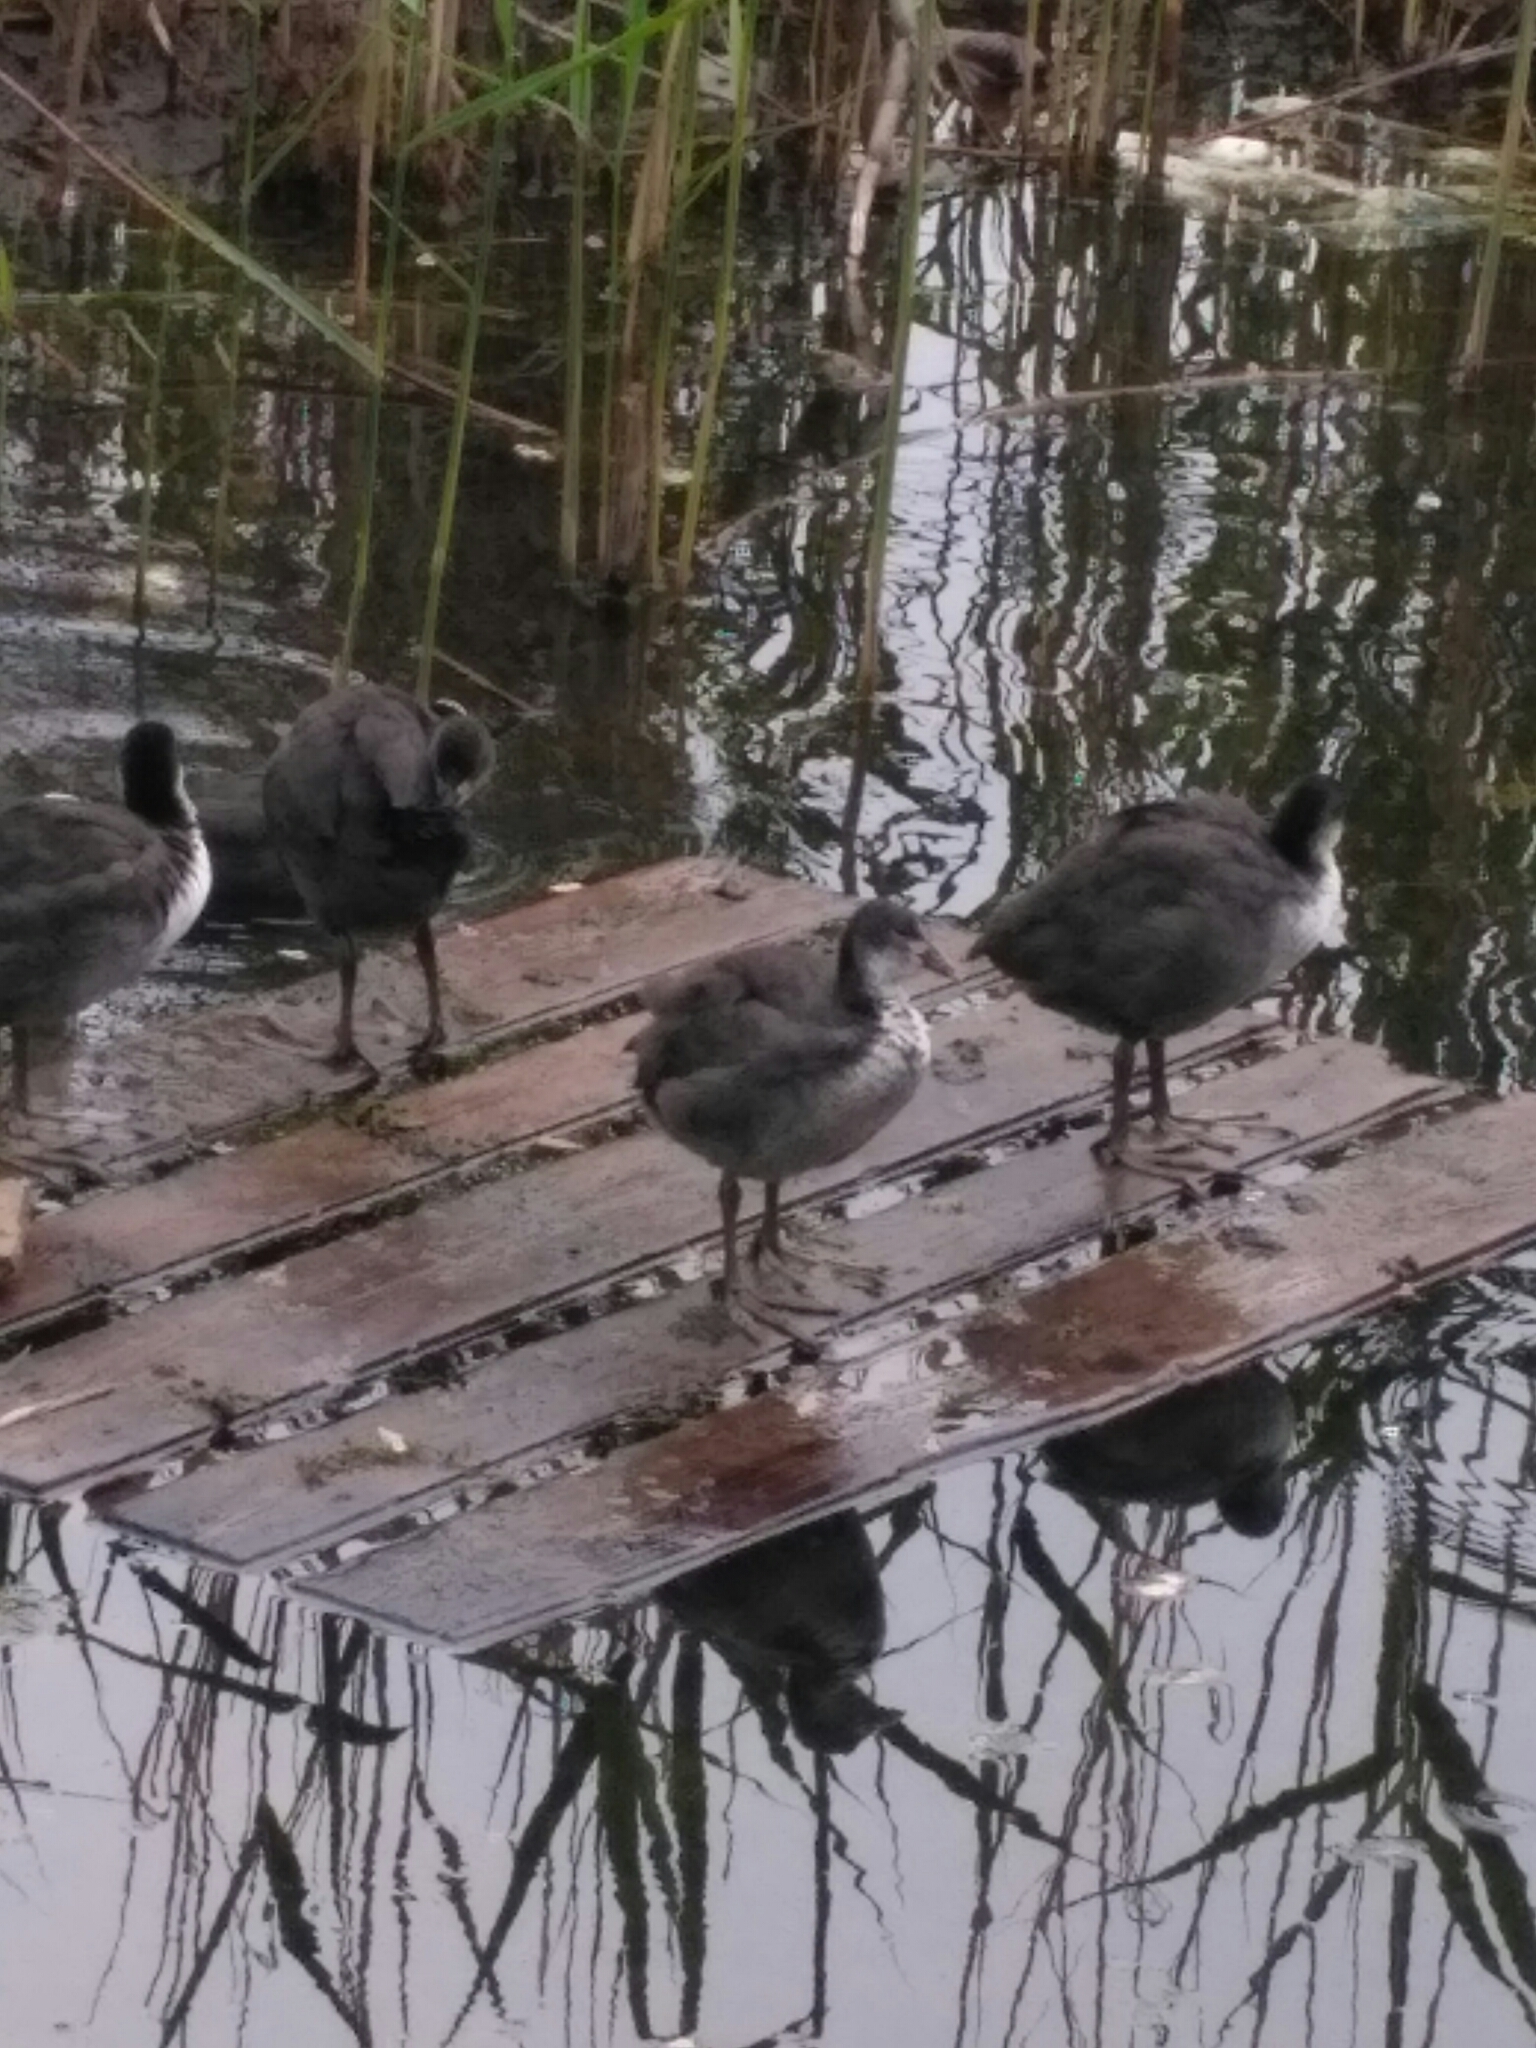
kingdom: Animalia
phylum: Chordata
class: Aves
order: Gruiformes
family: Rallidae
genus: Fulica
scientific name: Fulica atra
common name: Eurasian coot
